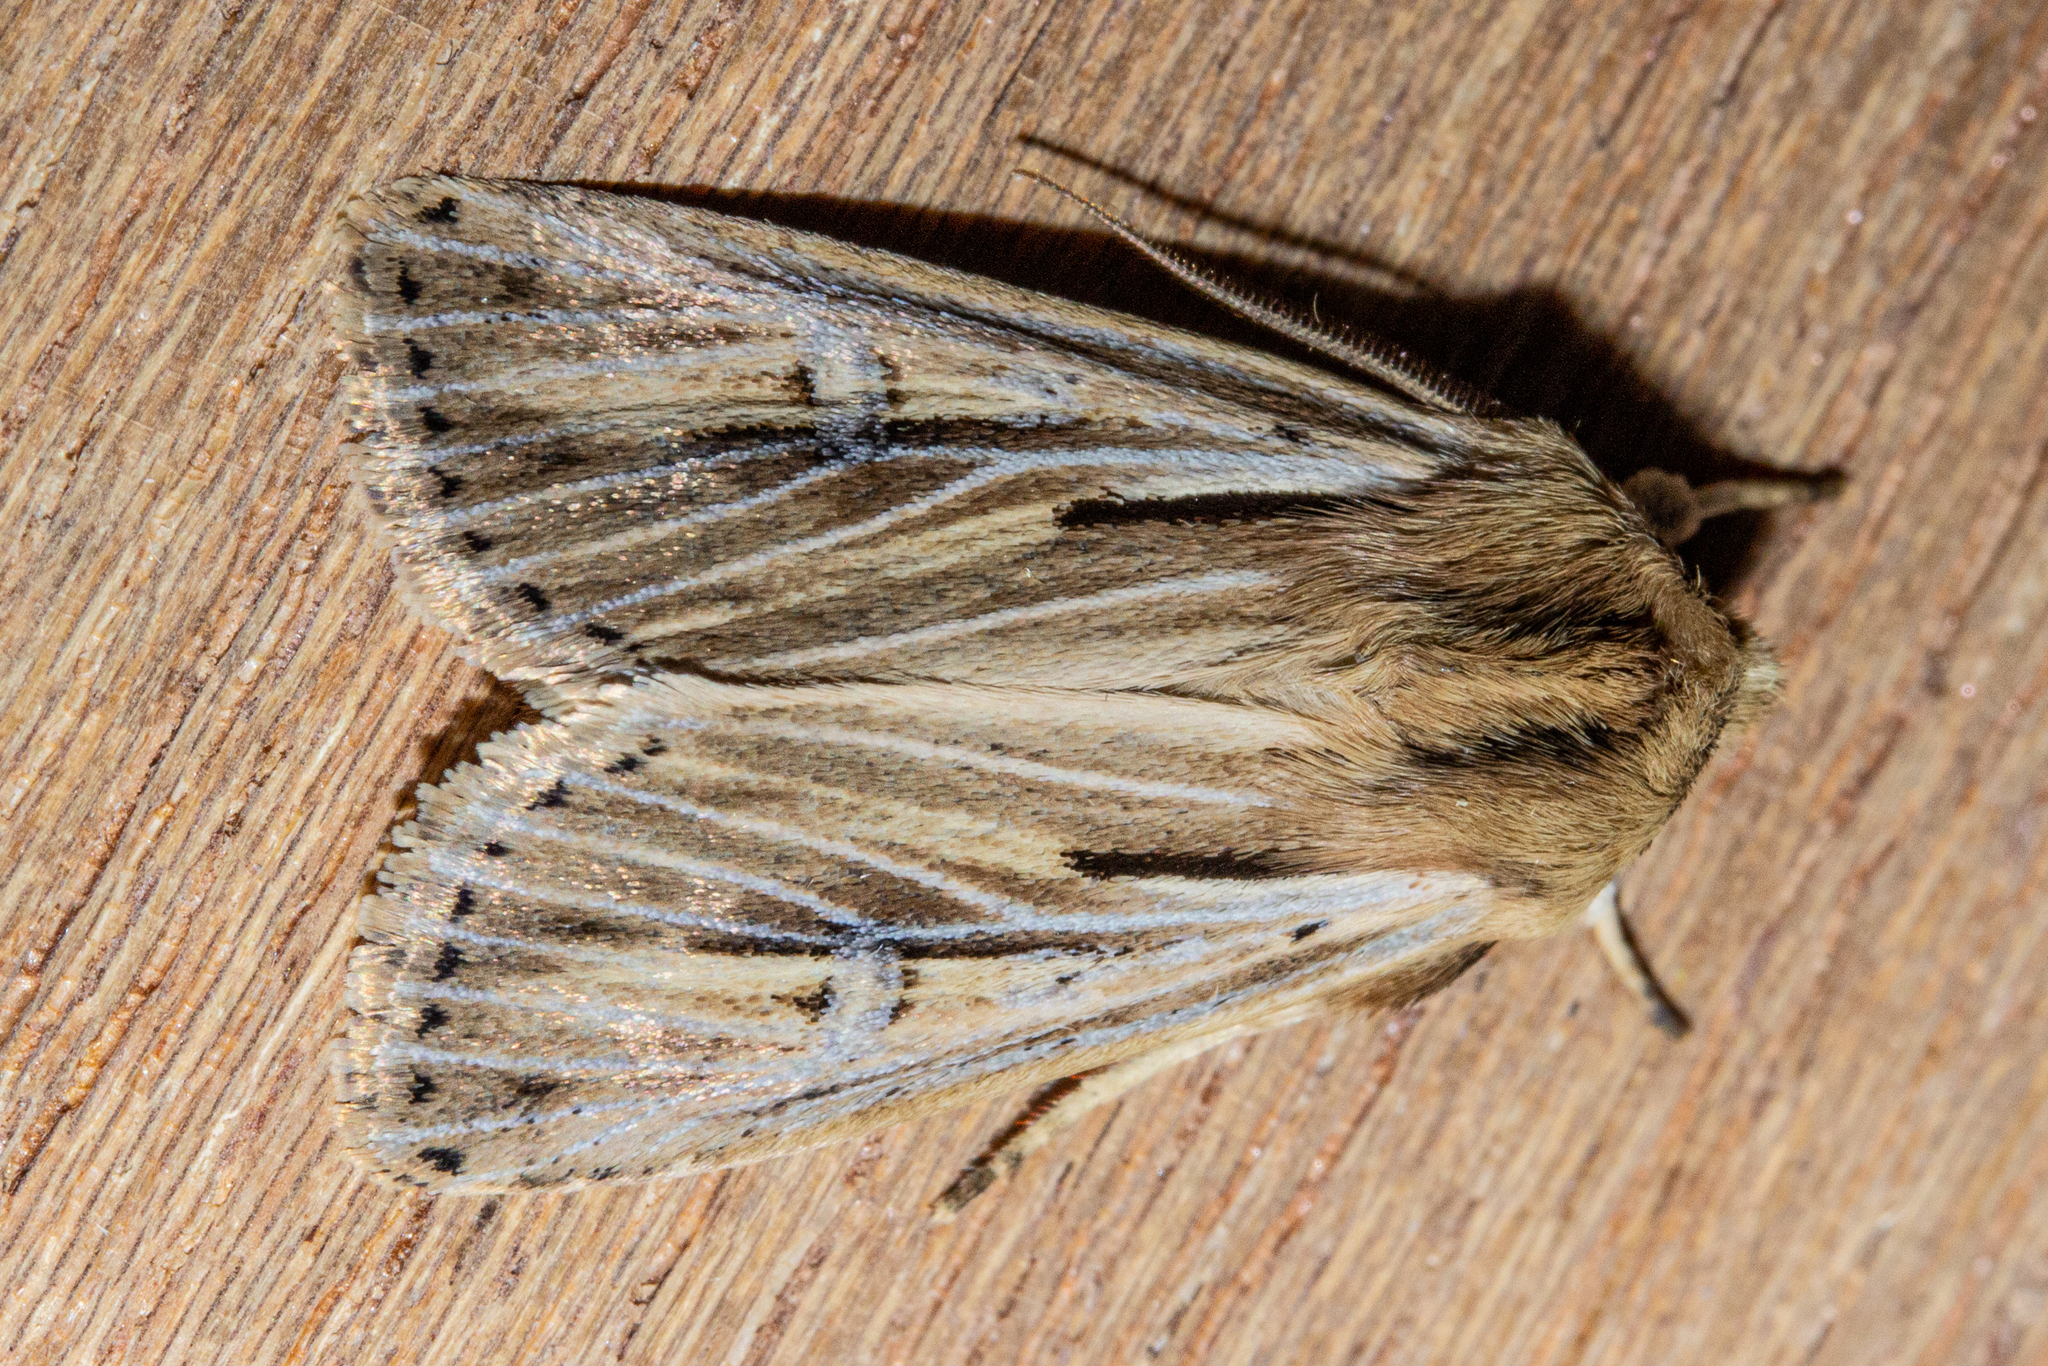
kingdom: Animalia
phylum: Arthropoda
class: Insecta
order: Lepidoptera
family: Noctuidae
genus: Ichneutica
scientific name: Ichneutica propria
